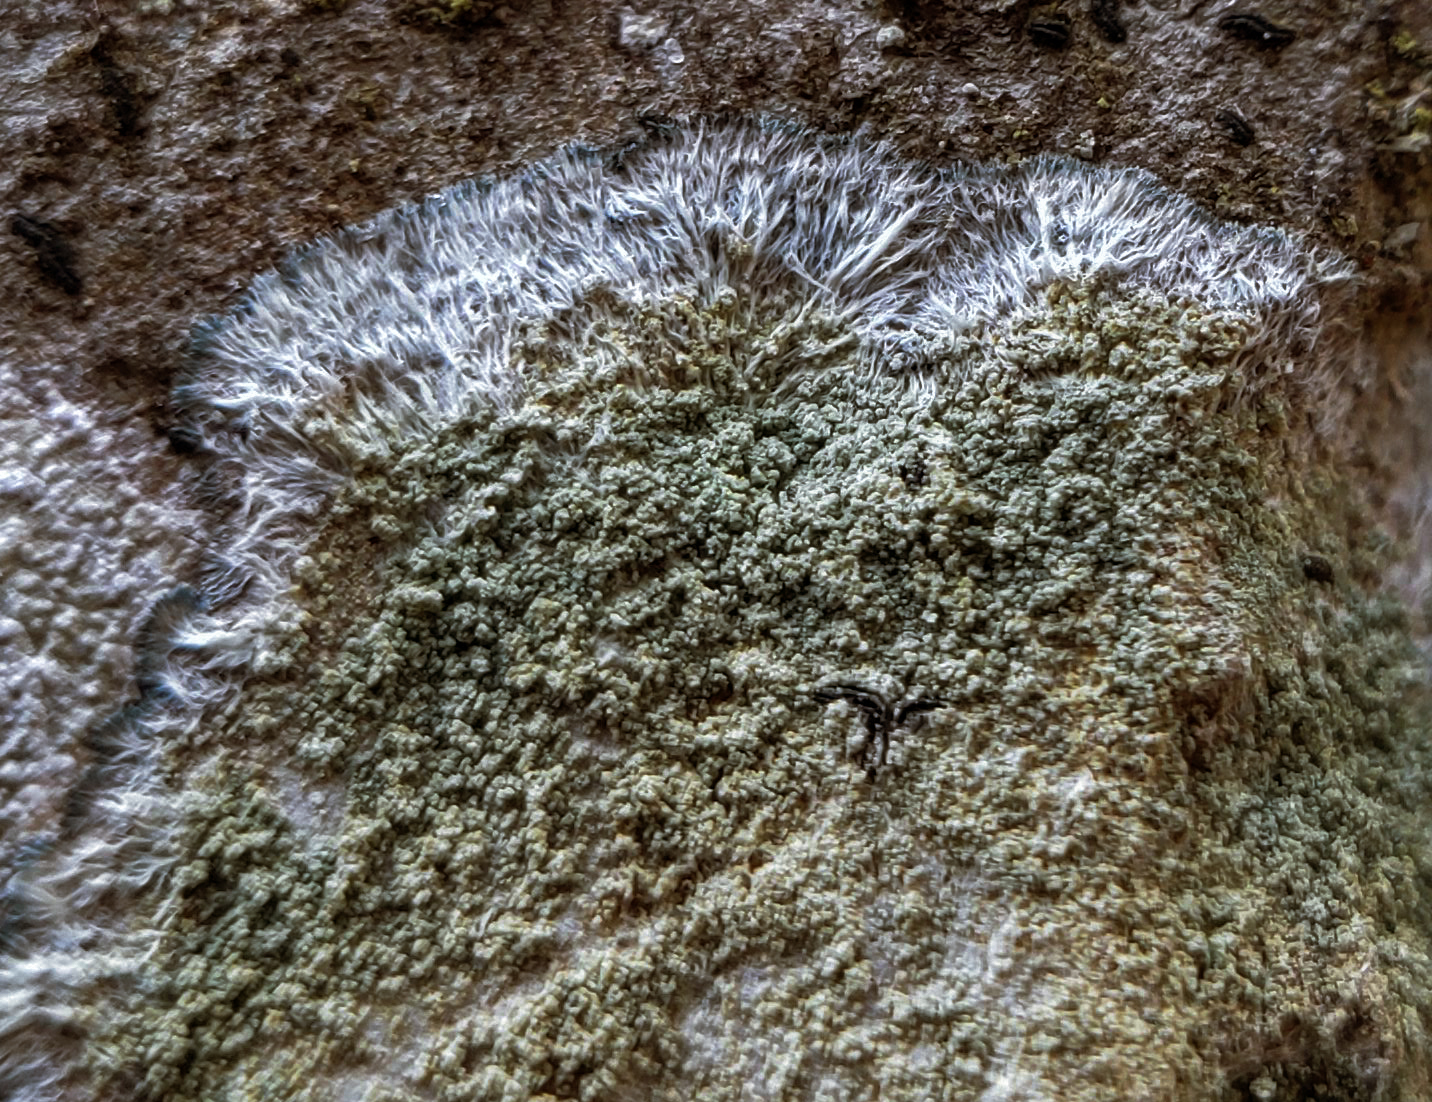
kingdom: Fungi
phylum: Ascomycota
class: Lecanoromycetes
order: Pertusariales
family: Pertusariaceae
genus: Verseghya
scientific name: Verseghya thysanophora
